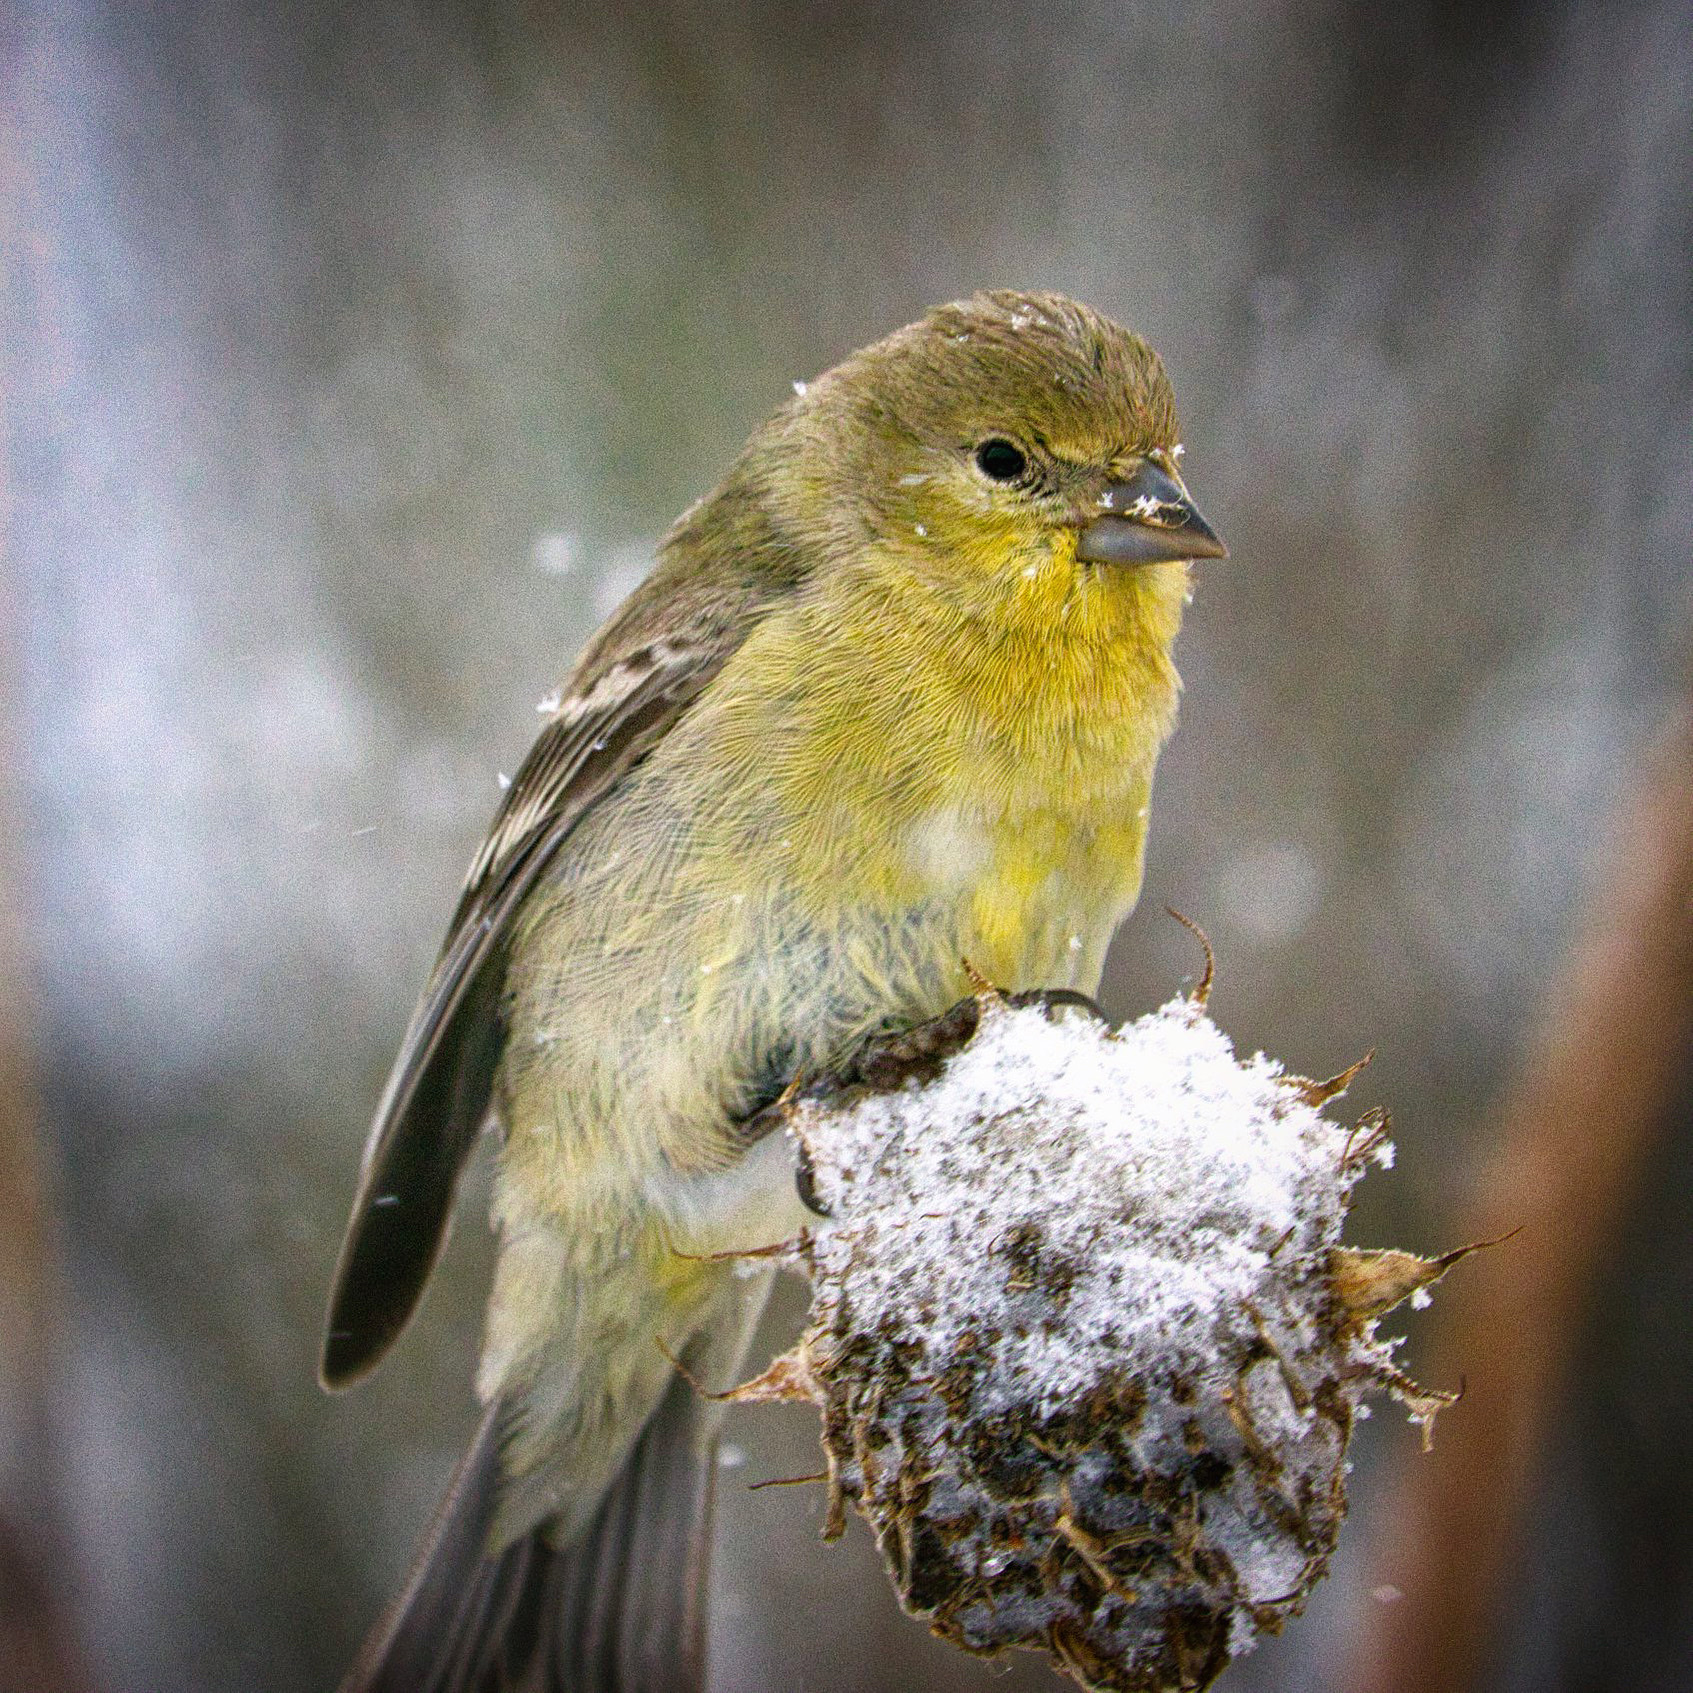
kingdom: Animalia
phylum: Chordata
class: Aves
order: Passeriformes
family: Fringillidae
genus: Spinus
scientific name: Spinus psaltria
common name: Lesser goldfinch
